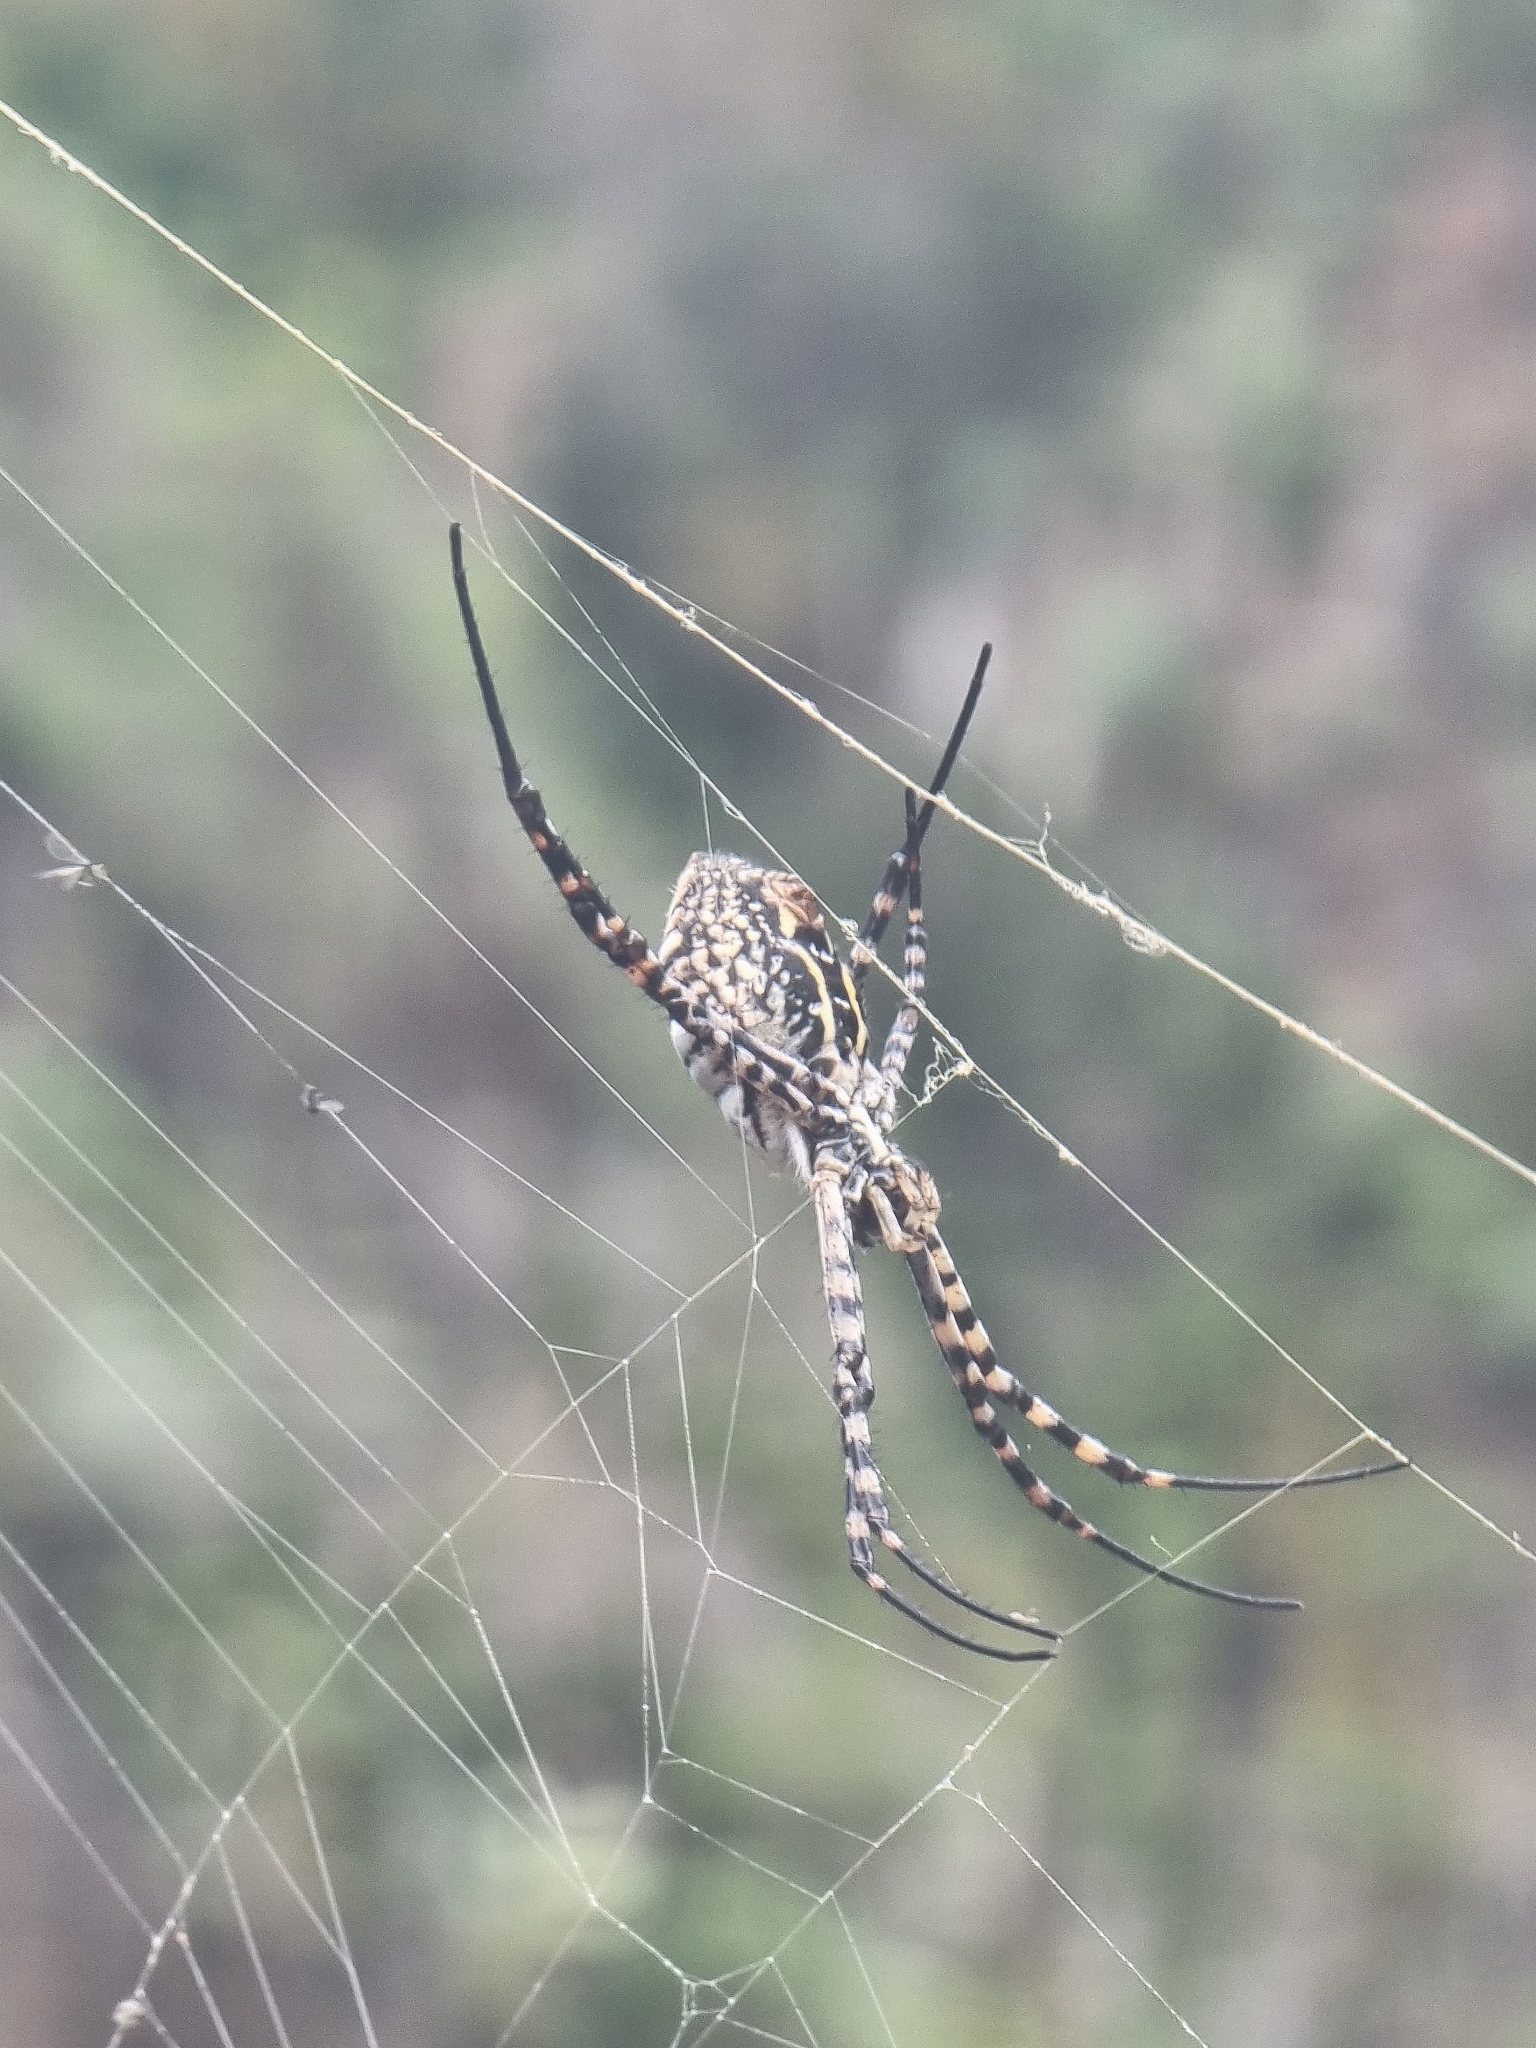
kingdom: Animalia
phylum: Arthropoda
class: Arachnida
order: Araneae
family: Araneidae
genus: Argiope
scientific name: Argiope trifasciata
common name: Banded garden spider
